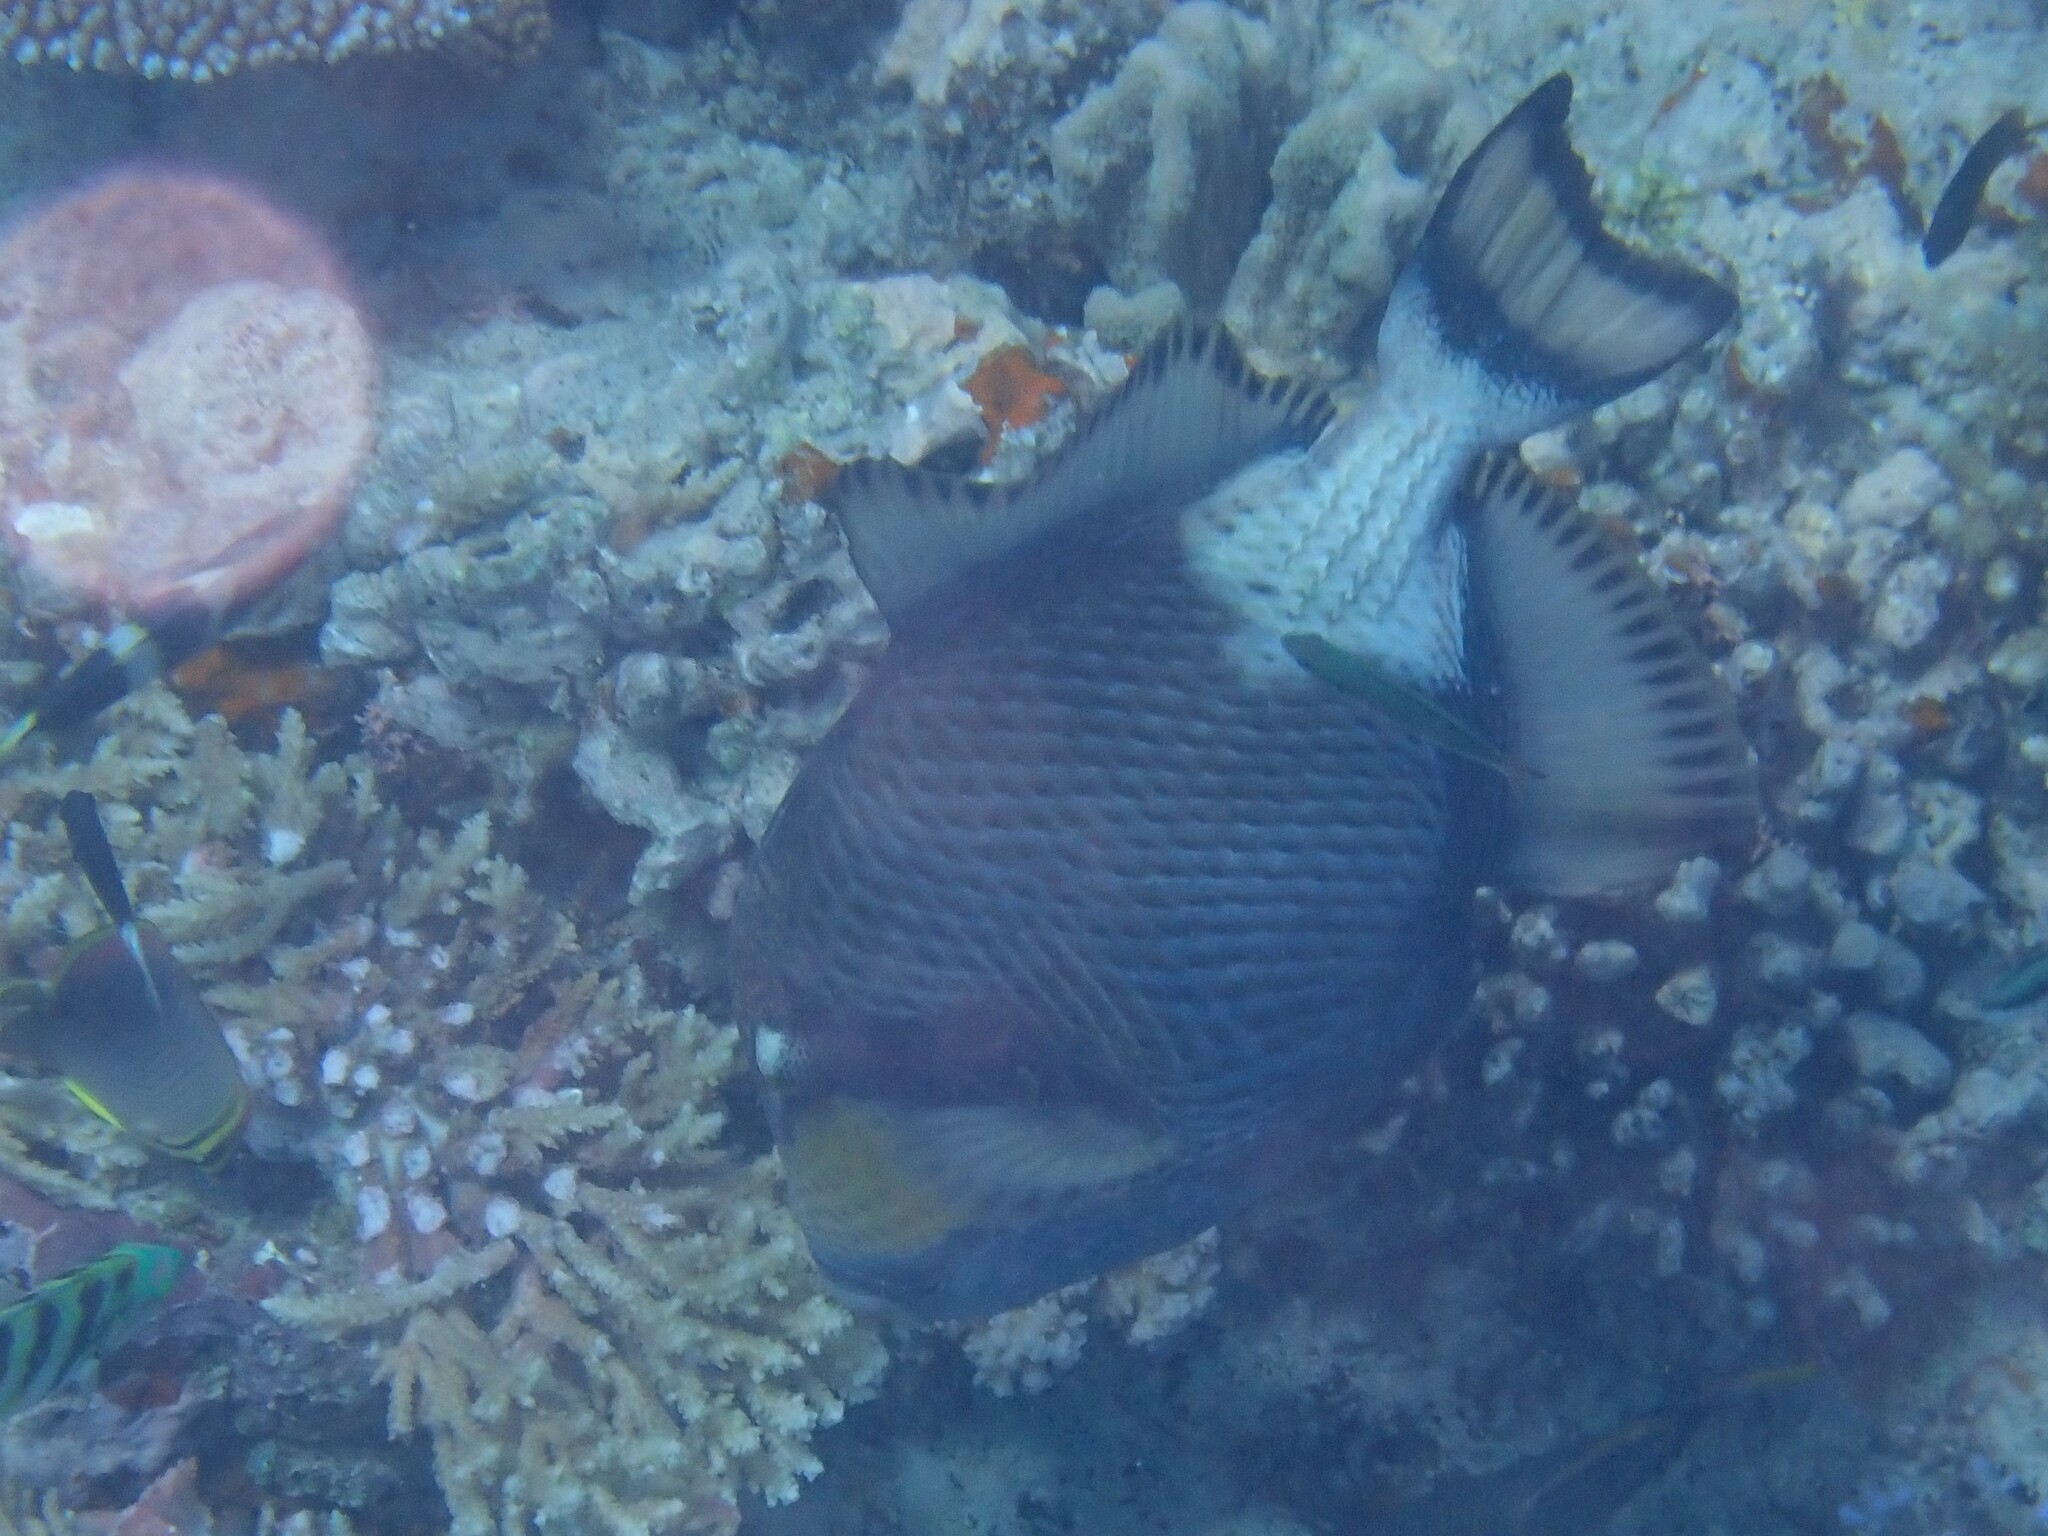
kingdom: Animalia
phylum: Chordata
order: Tetraodontiformes
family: Balistidae
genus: Balistoides
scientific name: Balistoides viridescens
